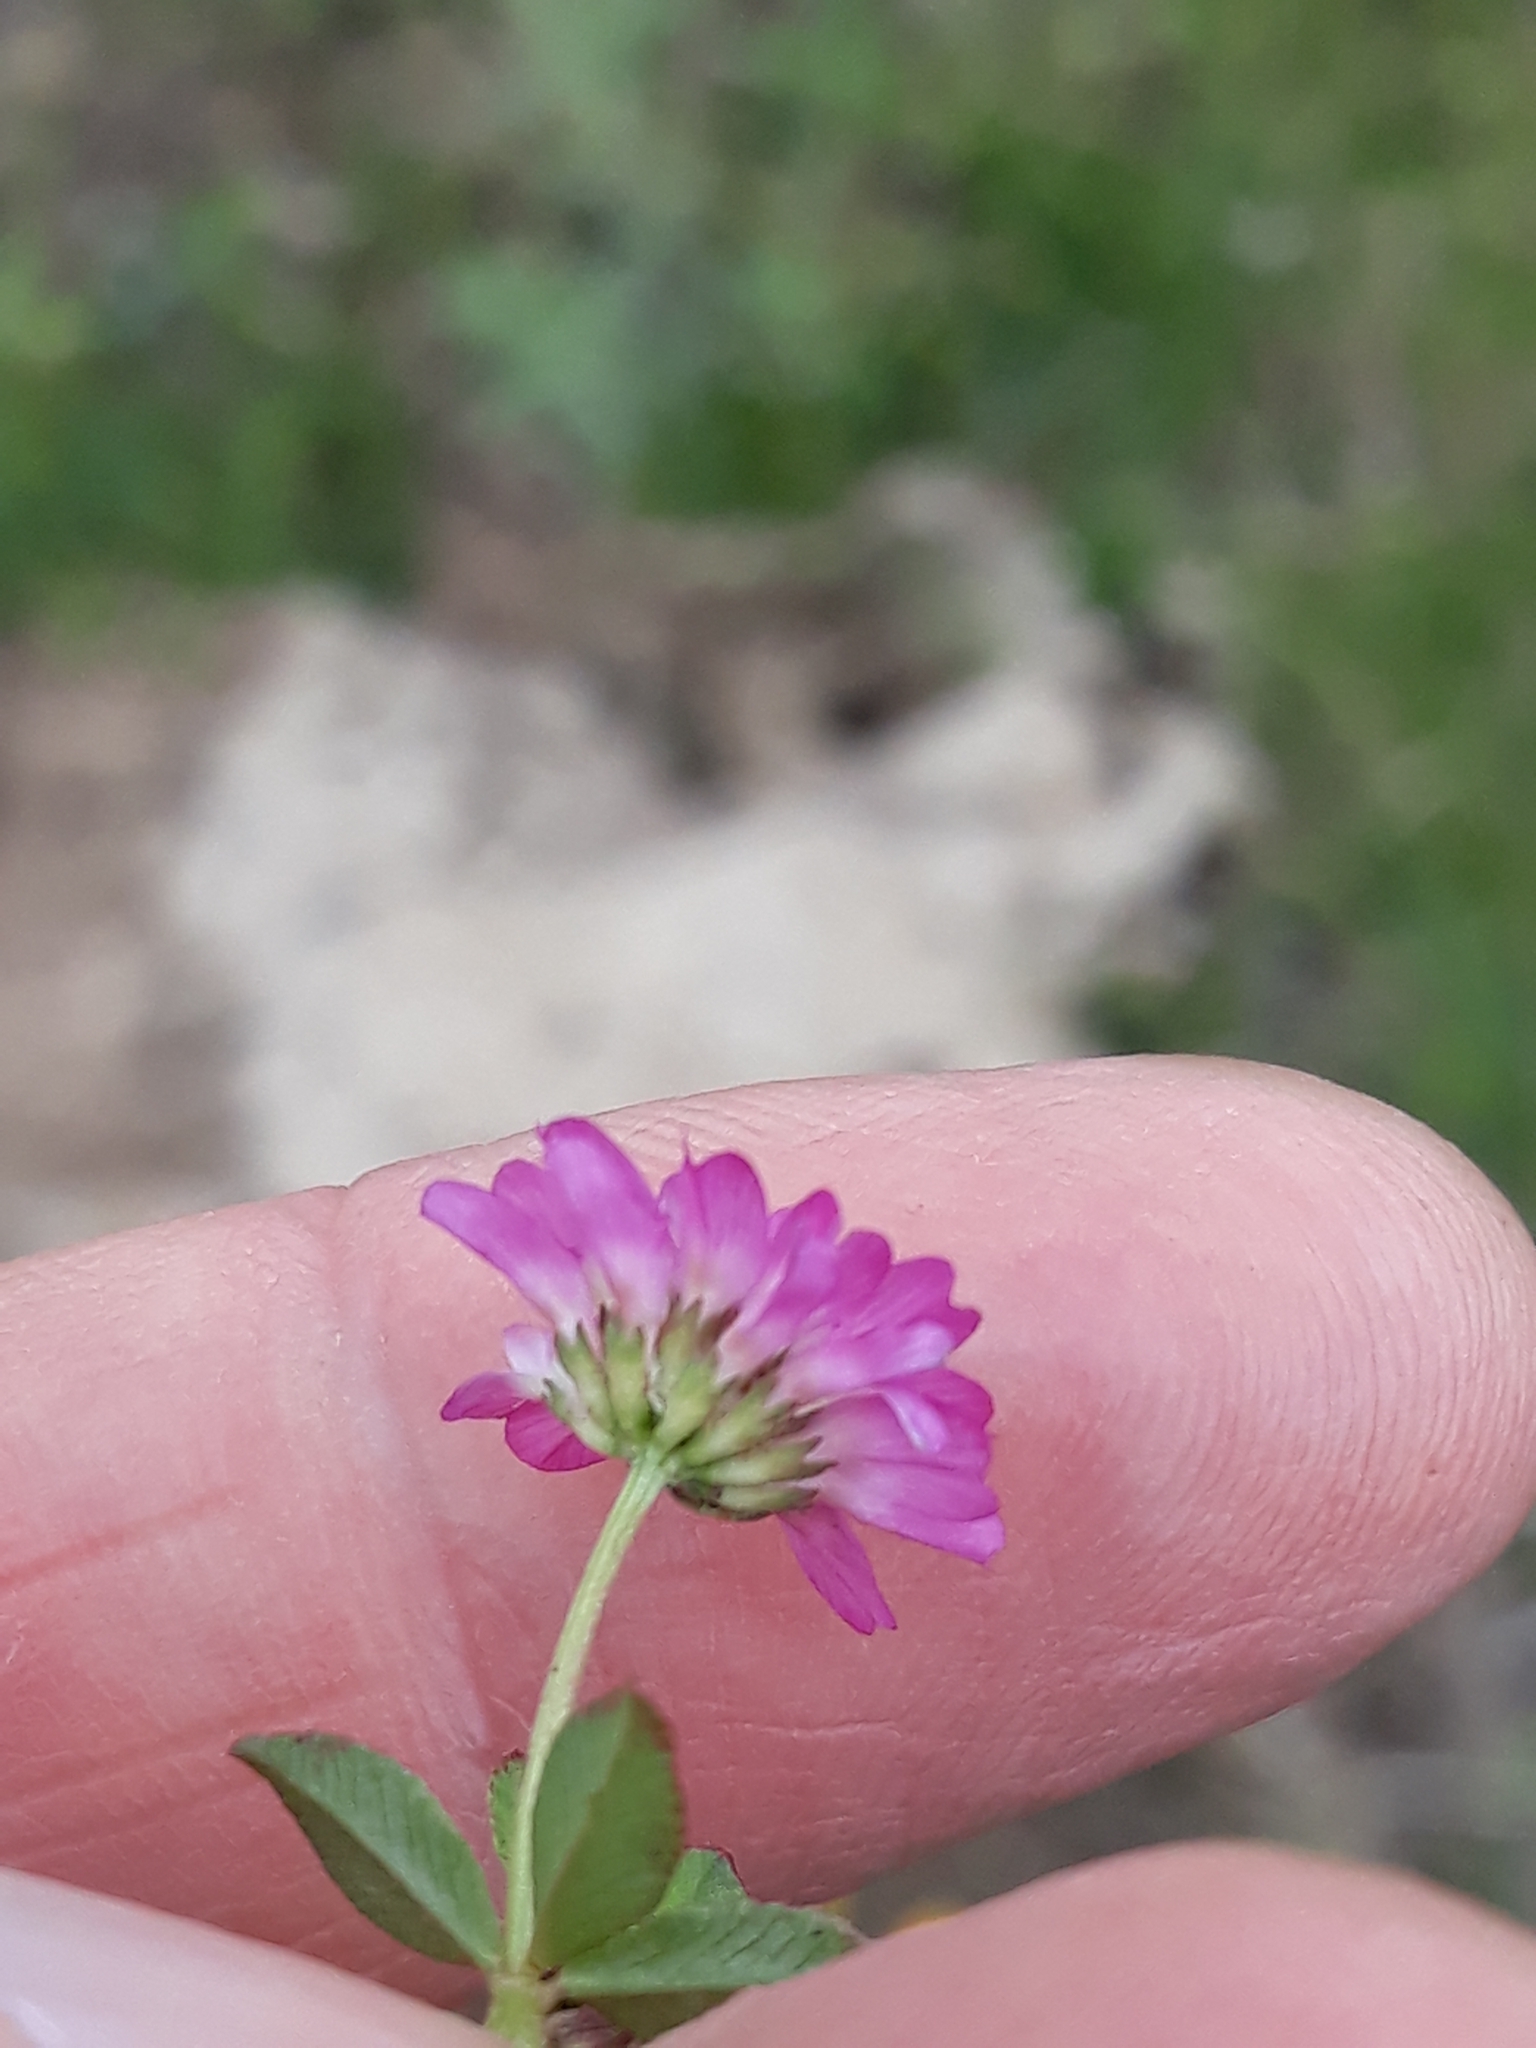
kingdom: Plantae
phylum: Tracheophyta
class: Magnoliopsida
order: Fabales
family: Fabaceae
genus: Trifolium
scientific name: Trifolium resupinatum
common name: Reversed clover
